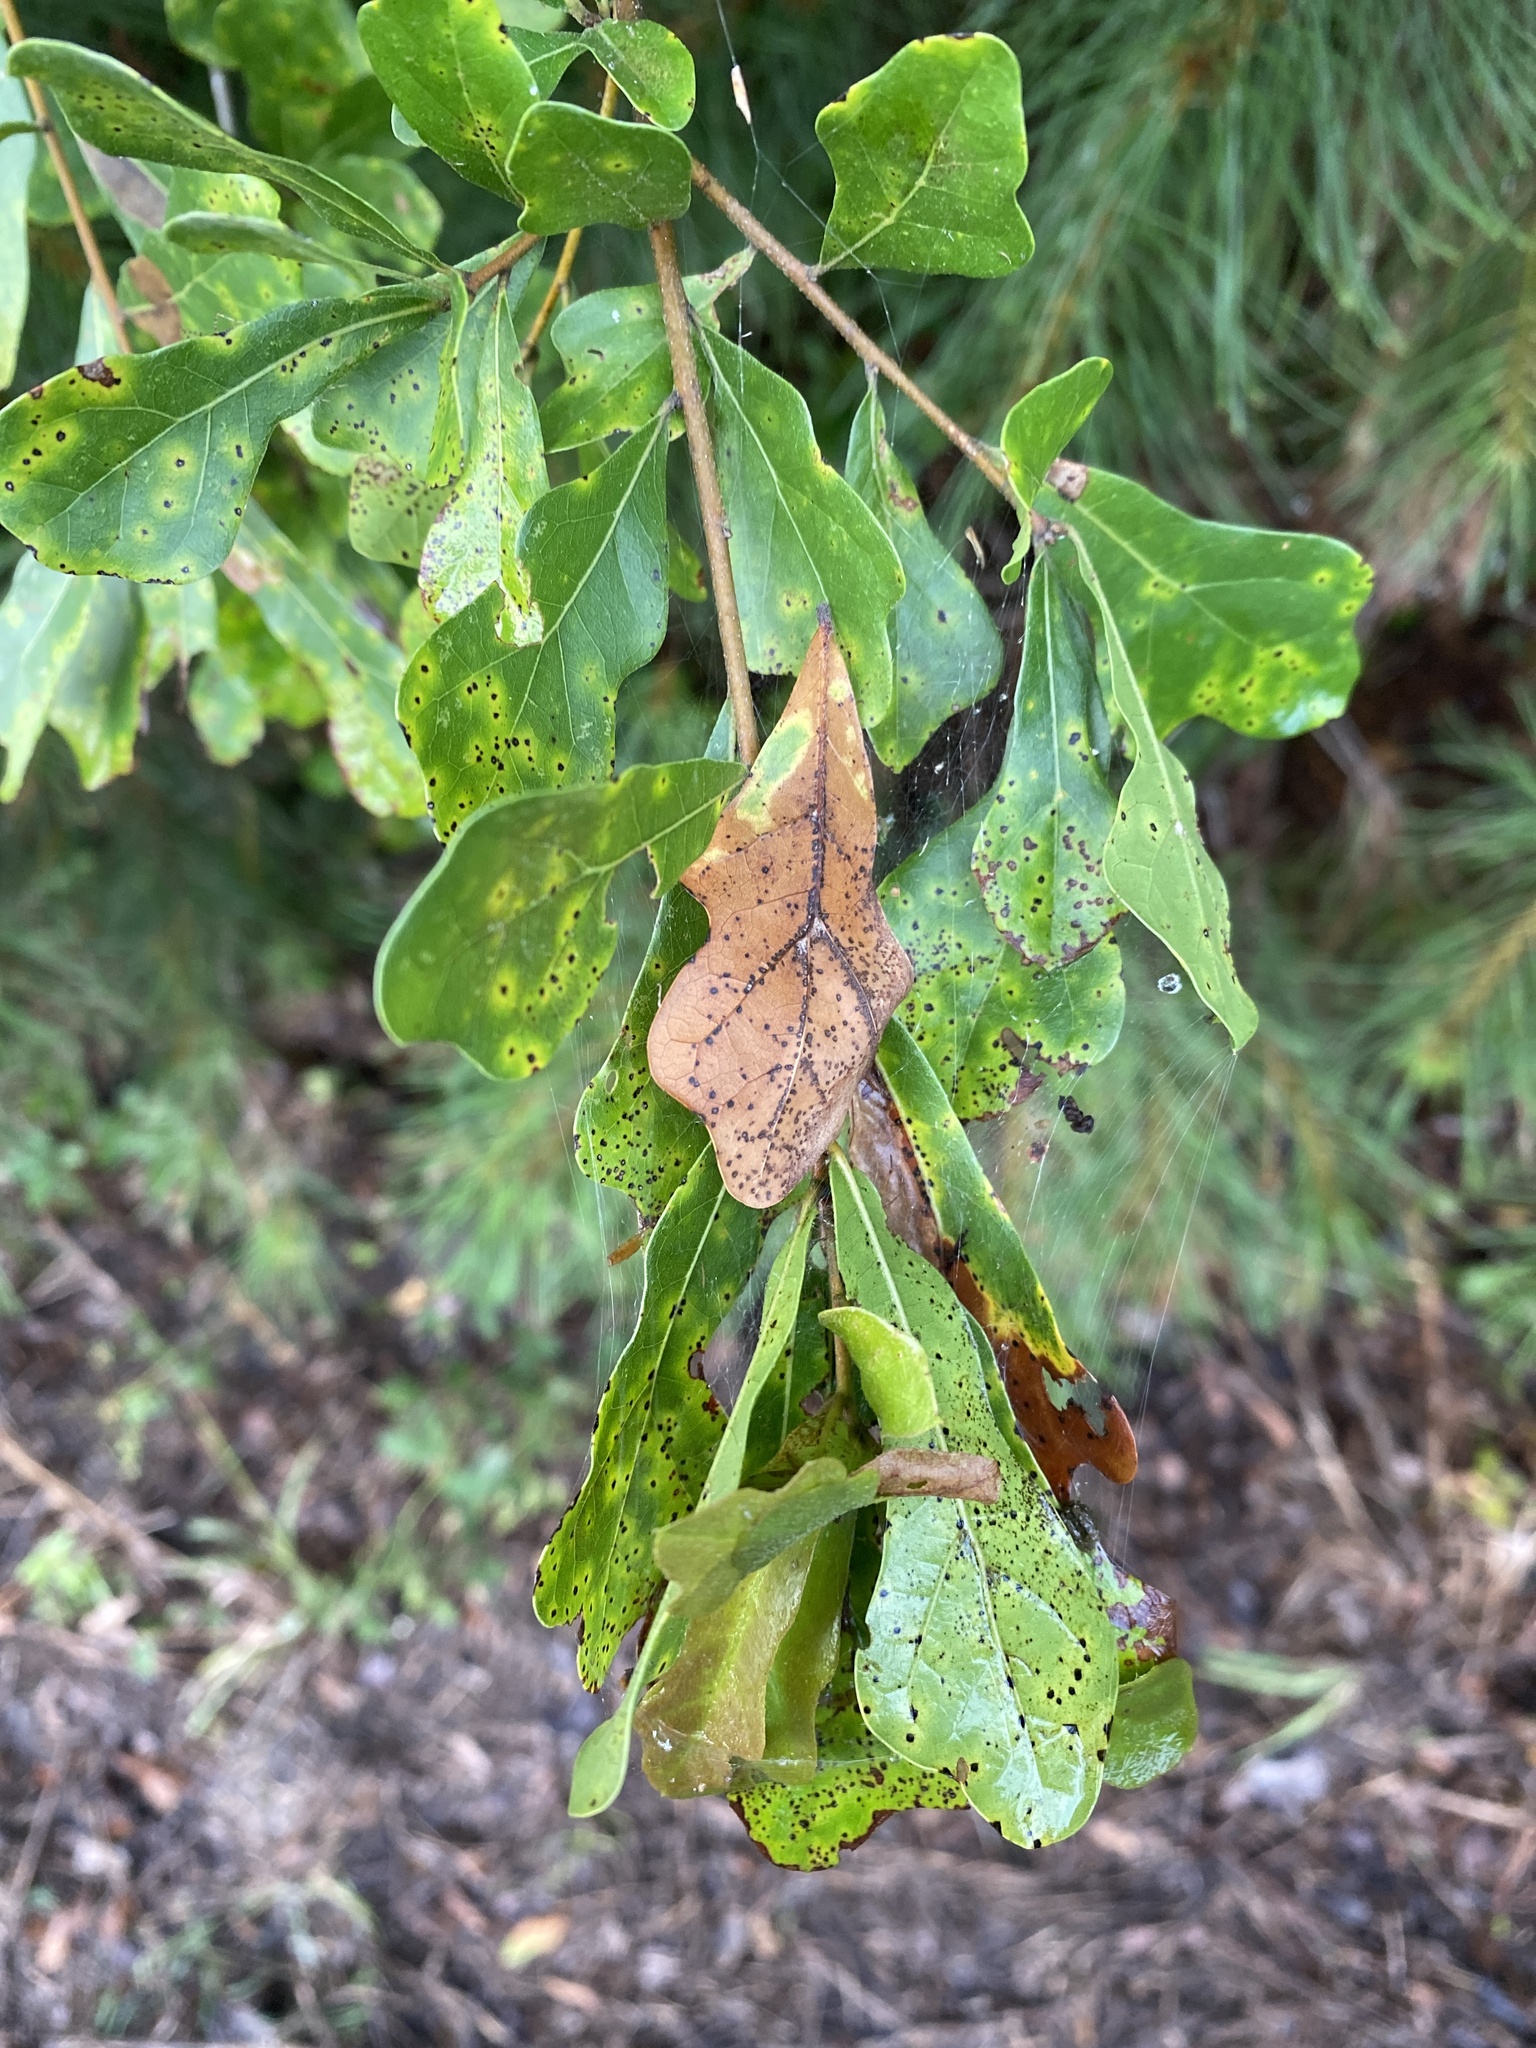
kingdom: Plantae
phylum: Tracheophyta
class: Magnoliopsida
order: Fagales
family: Fagaceae
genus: Quercus
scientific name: Quercus nigra
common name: Water oak
